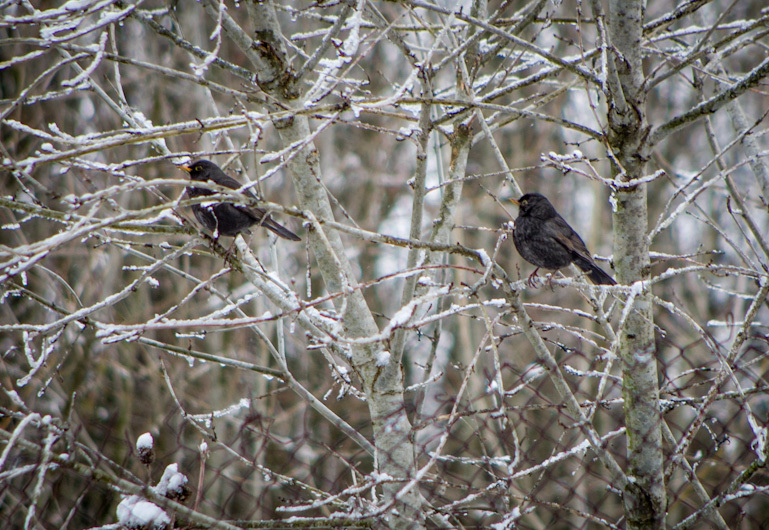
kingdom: Animalia
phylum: Chordata
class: Aves
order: Passeriformes
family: Turdidae
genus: Turdus
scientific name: Turdus merula
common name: Common blackbird
